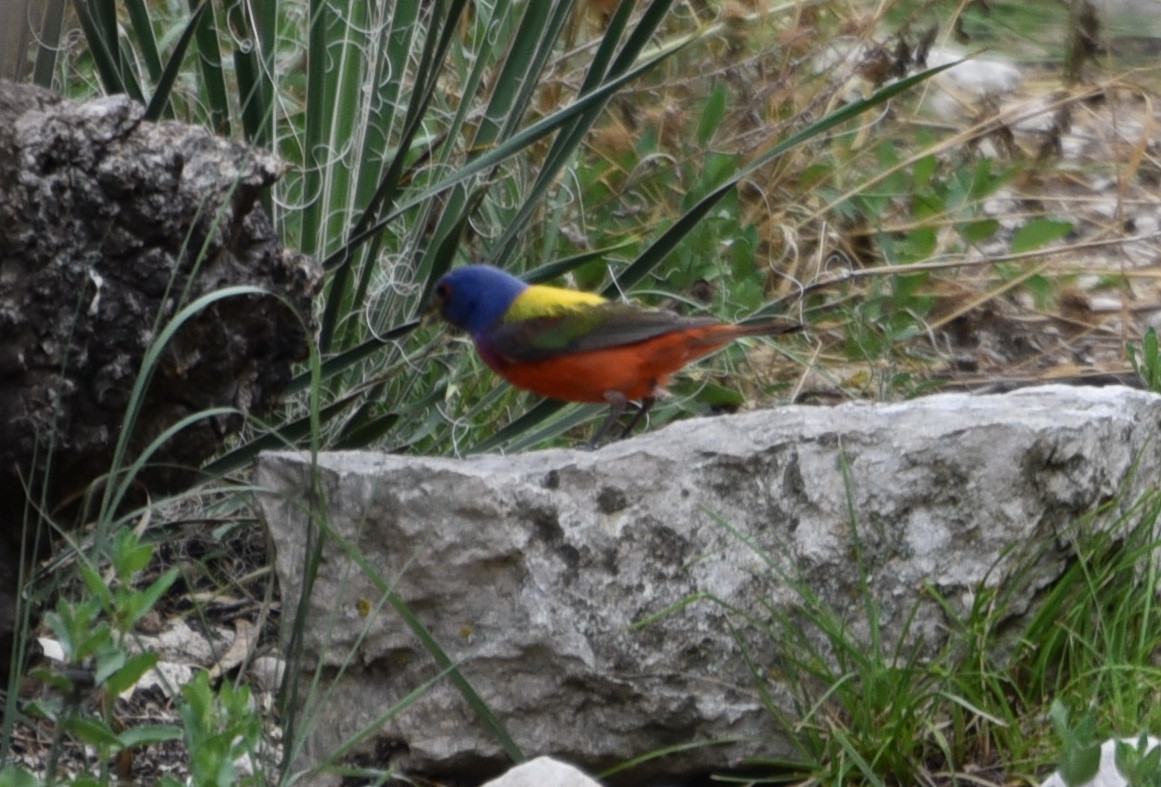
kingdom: Animalia
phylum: Chordata
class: Aves
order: Passeriformes
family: Cardinalidae
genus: Passerina
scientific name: Passerina ciris
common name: Painted bunting
